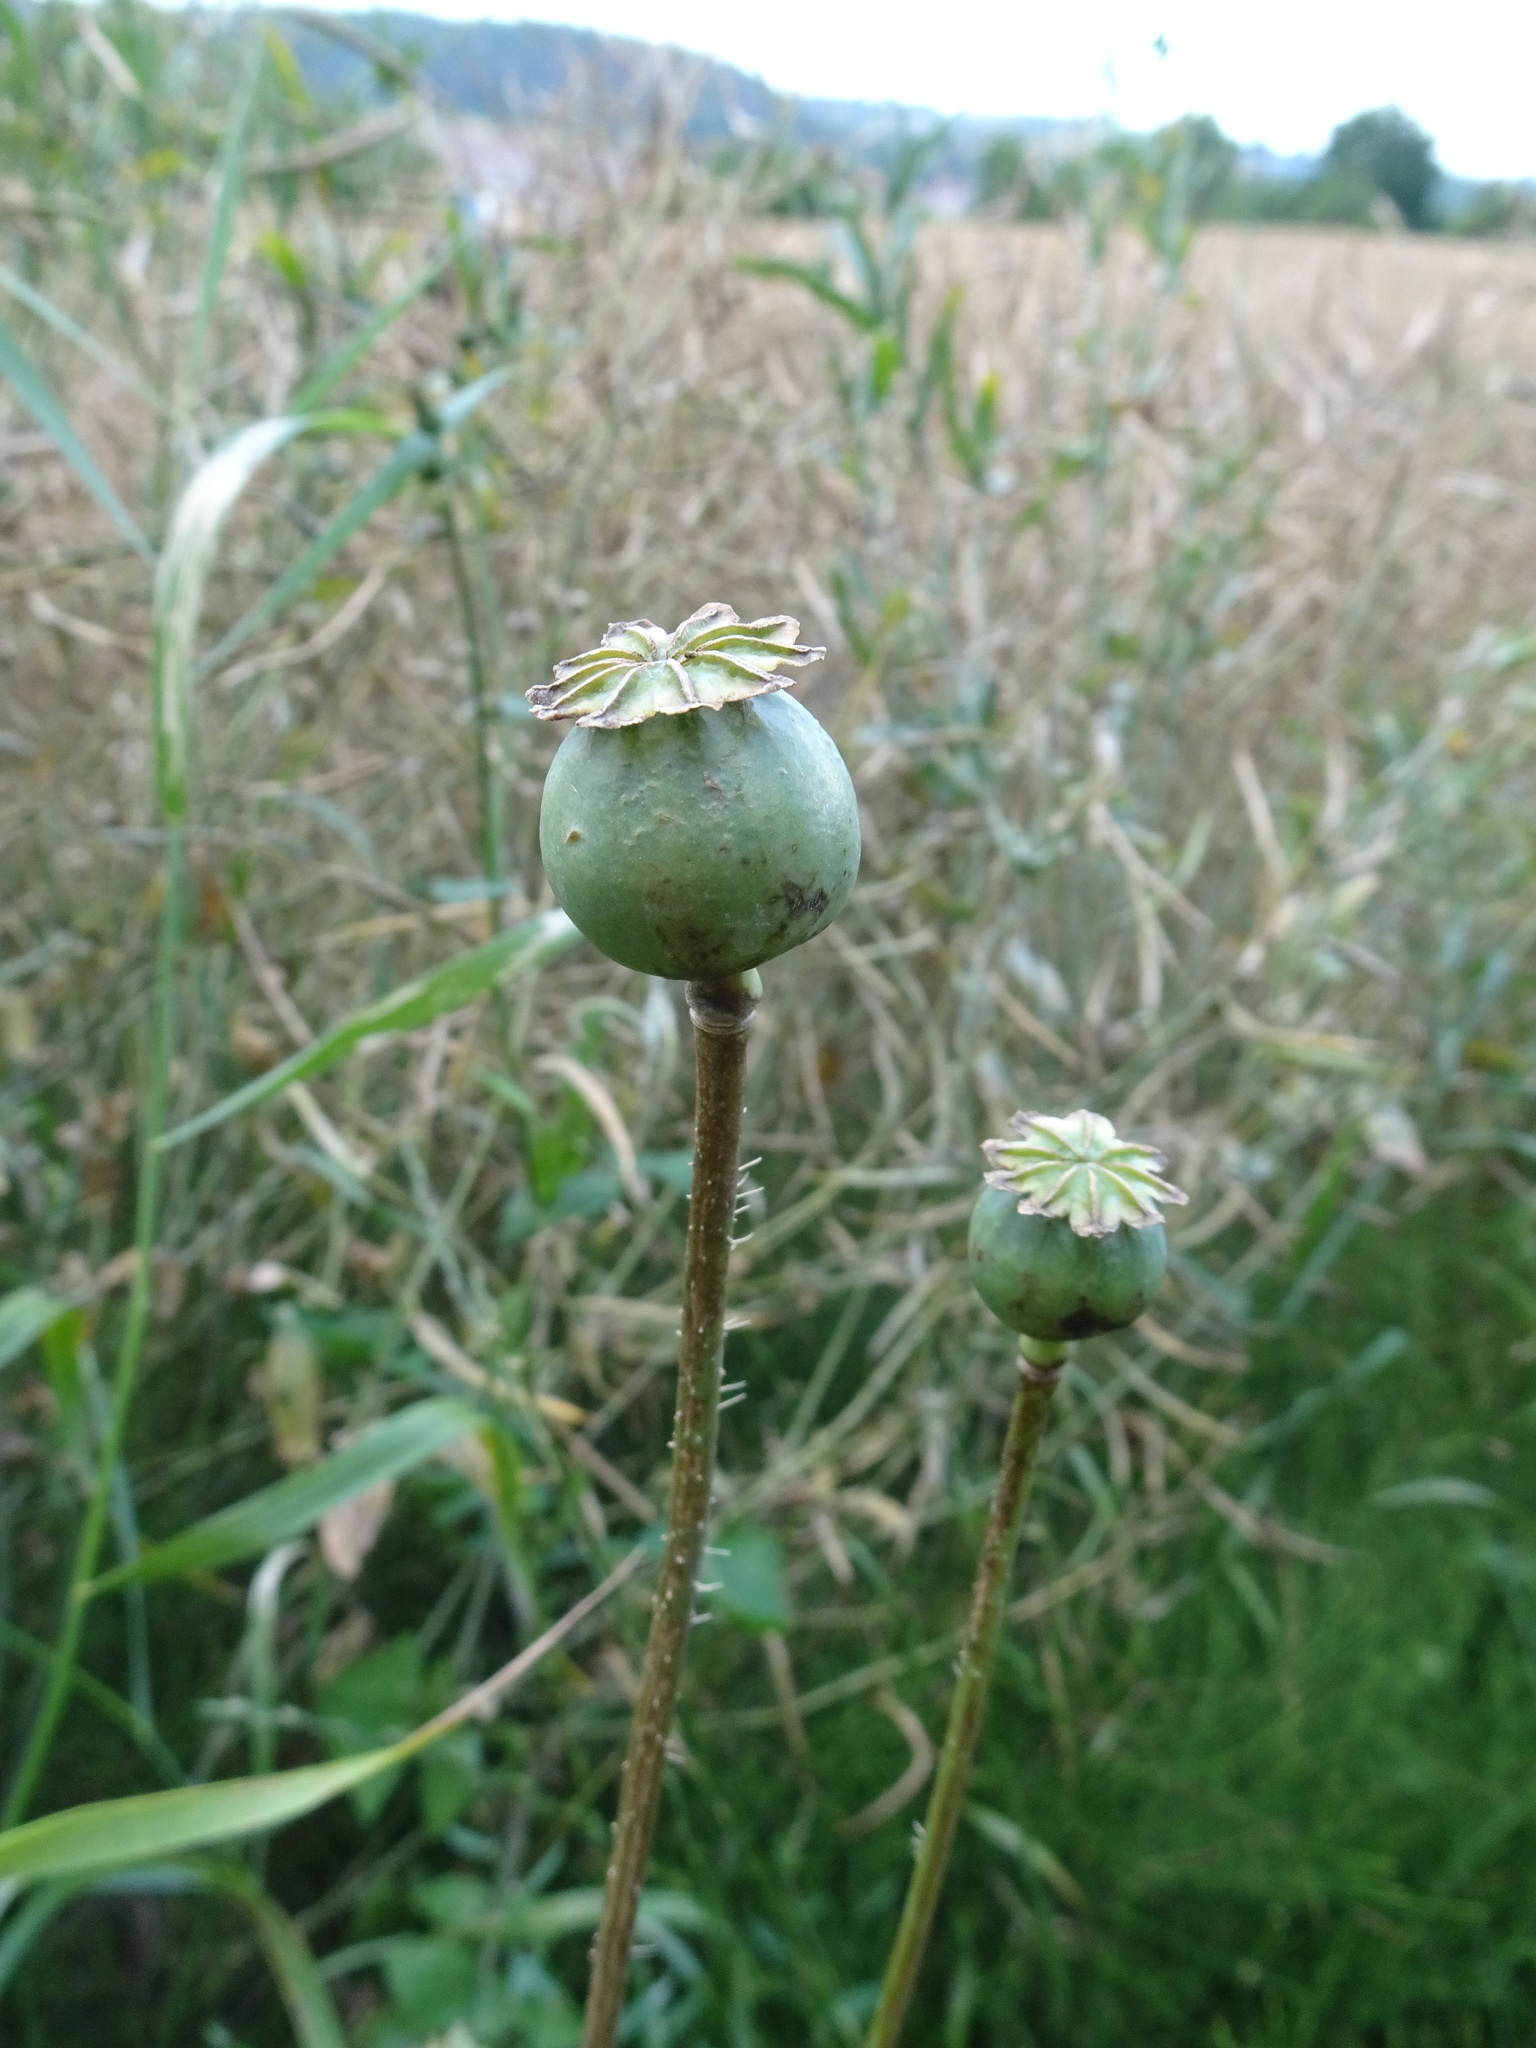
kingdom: Plantae
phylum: Tracheophyta
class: Magnoliopsida
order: Ranunculales
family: Papaveraceae
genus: Papaver
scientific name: Papaver somniferum
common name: Opium poppy
